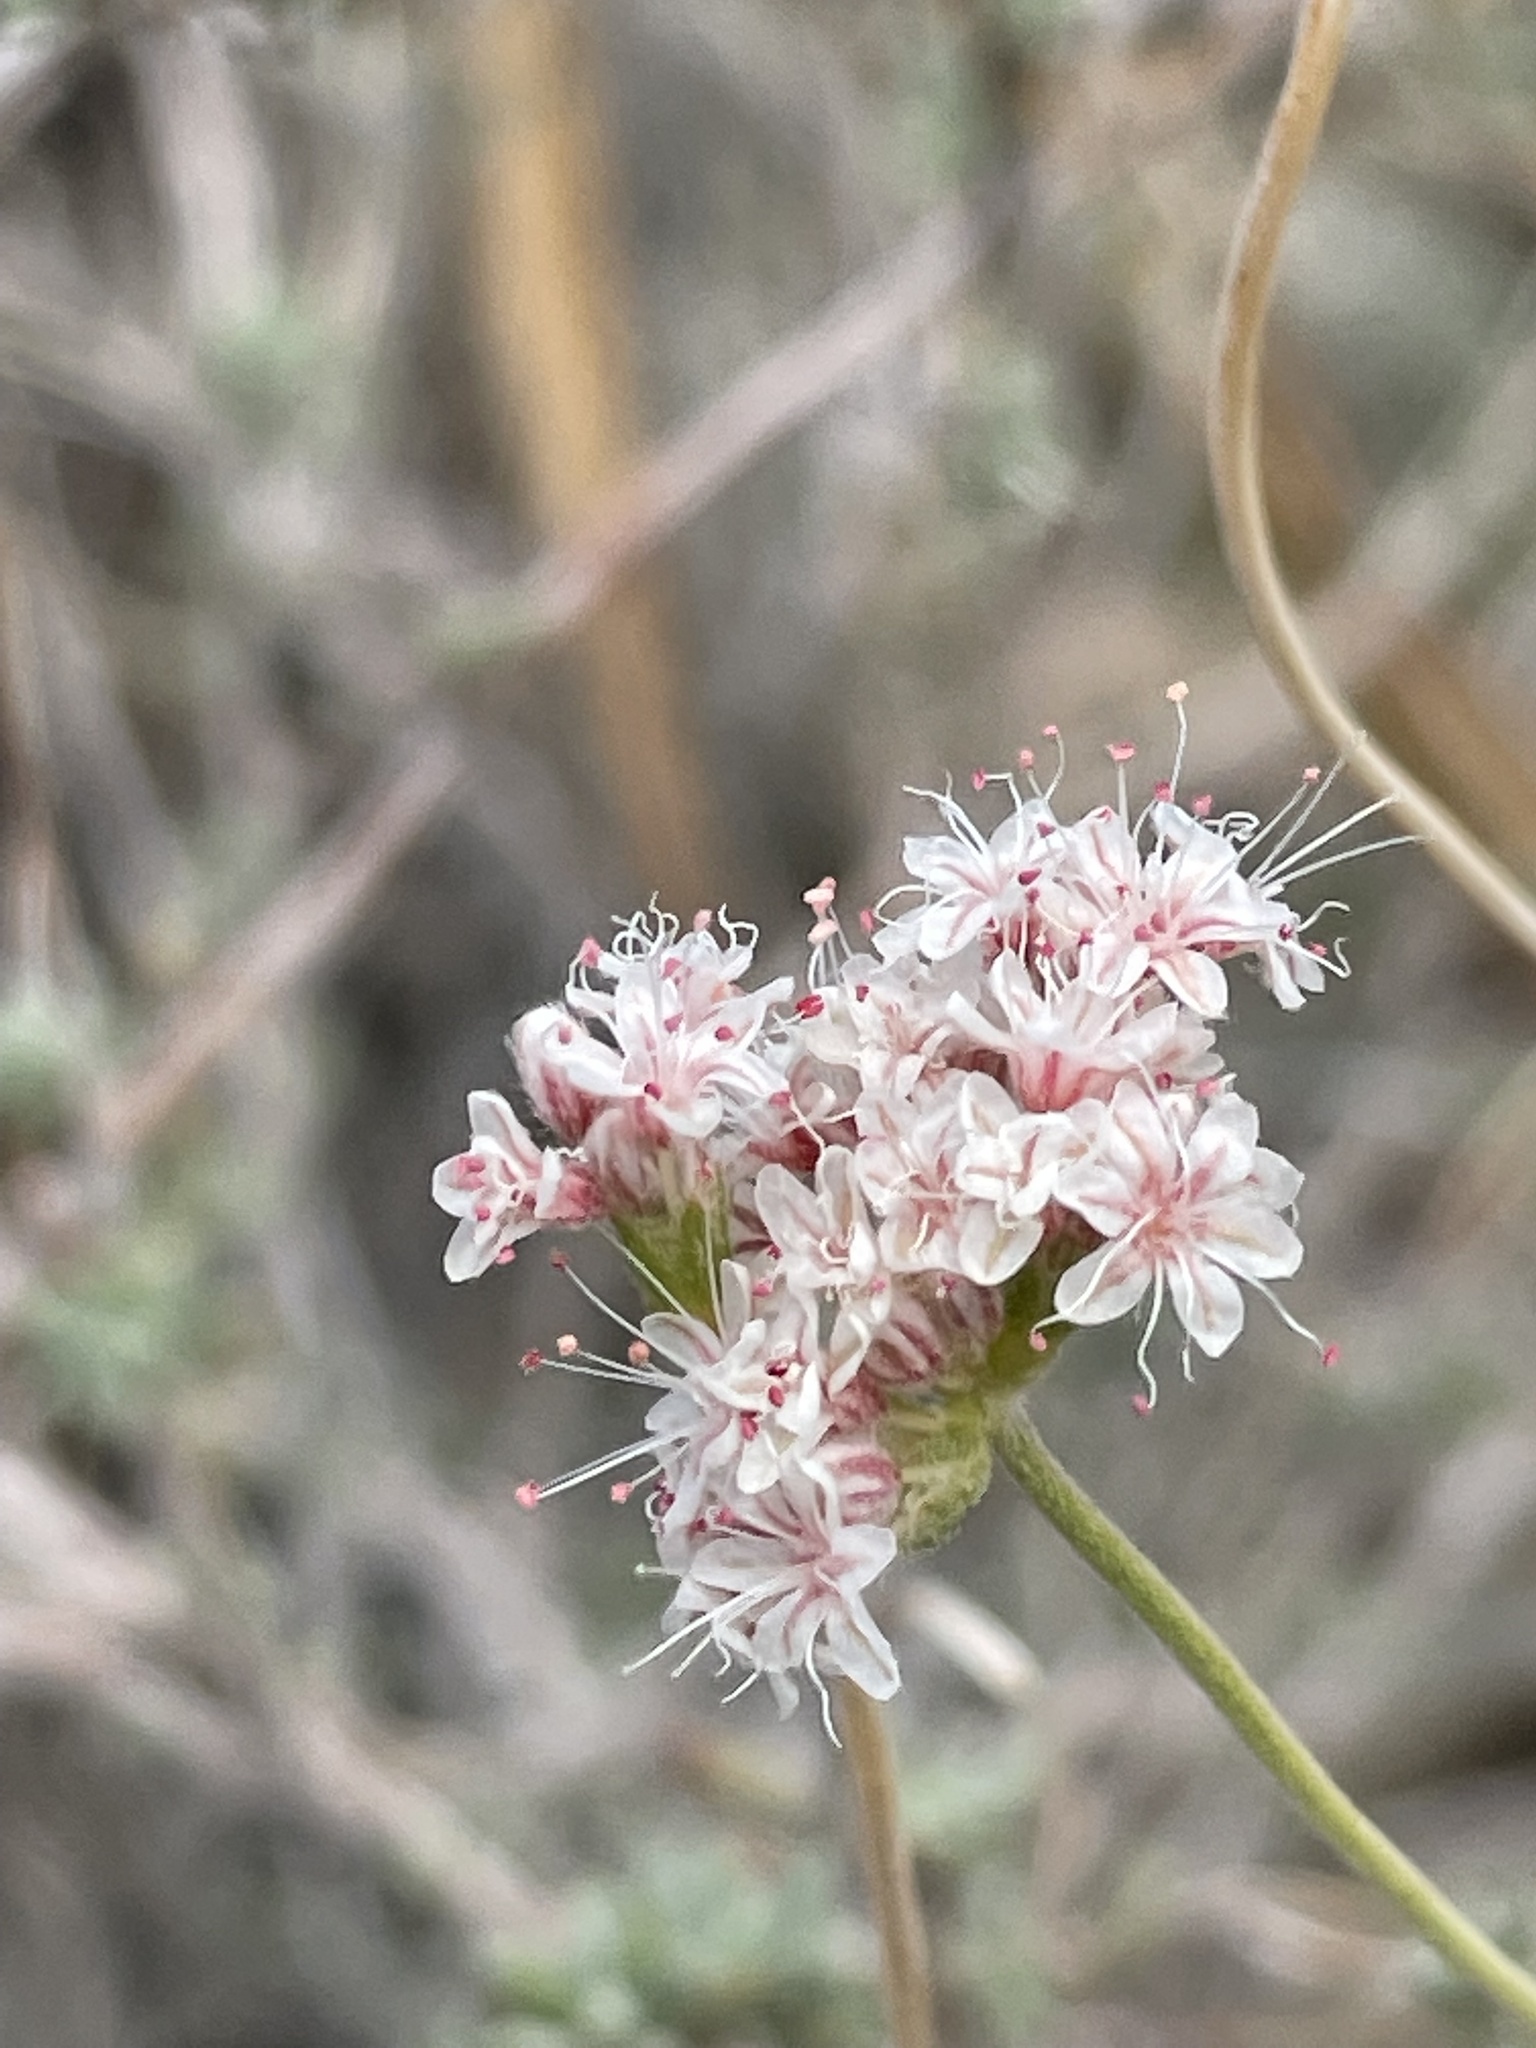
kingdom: Plantae
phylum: Tracheophyta
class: Magnoliopsida
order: Caryophyllales
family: Polygonaceae
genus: Eriogonum
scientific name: Eriogonum fasciculatum
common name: California wild buckwheat
